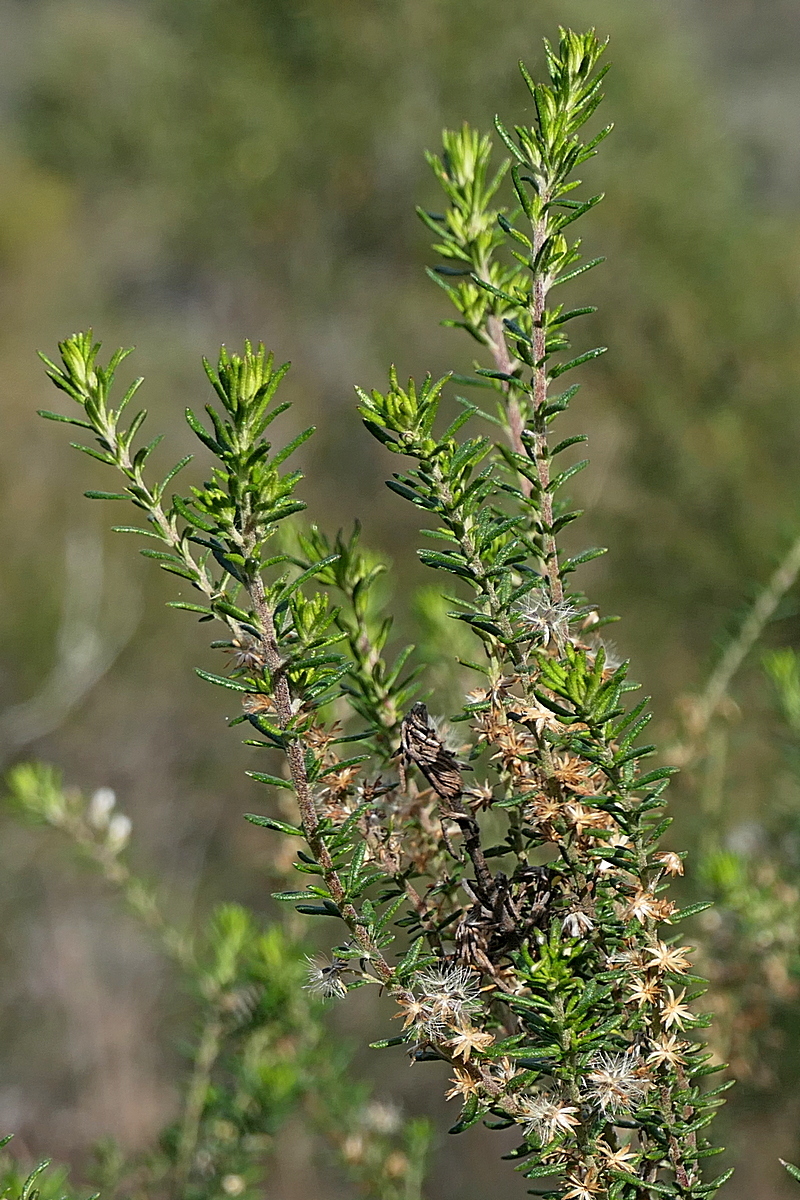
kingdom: Plantae
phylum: Tracheophyta
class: Magnoliopsida
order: Asterales
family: Asteraceae
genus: Olearia
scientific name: Olearia ramulosa
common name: Twiggy daisybush
